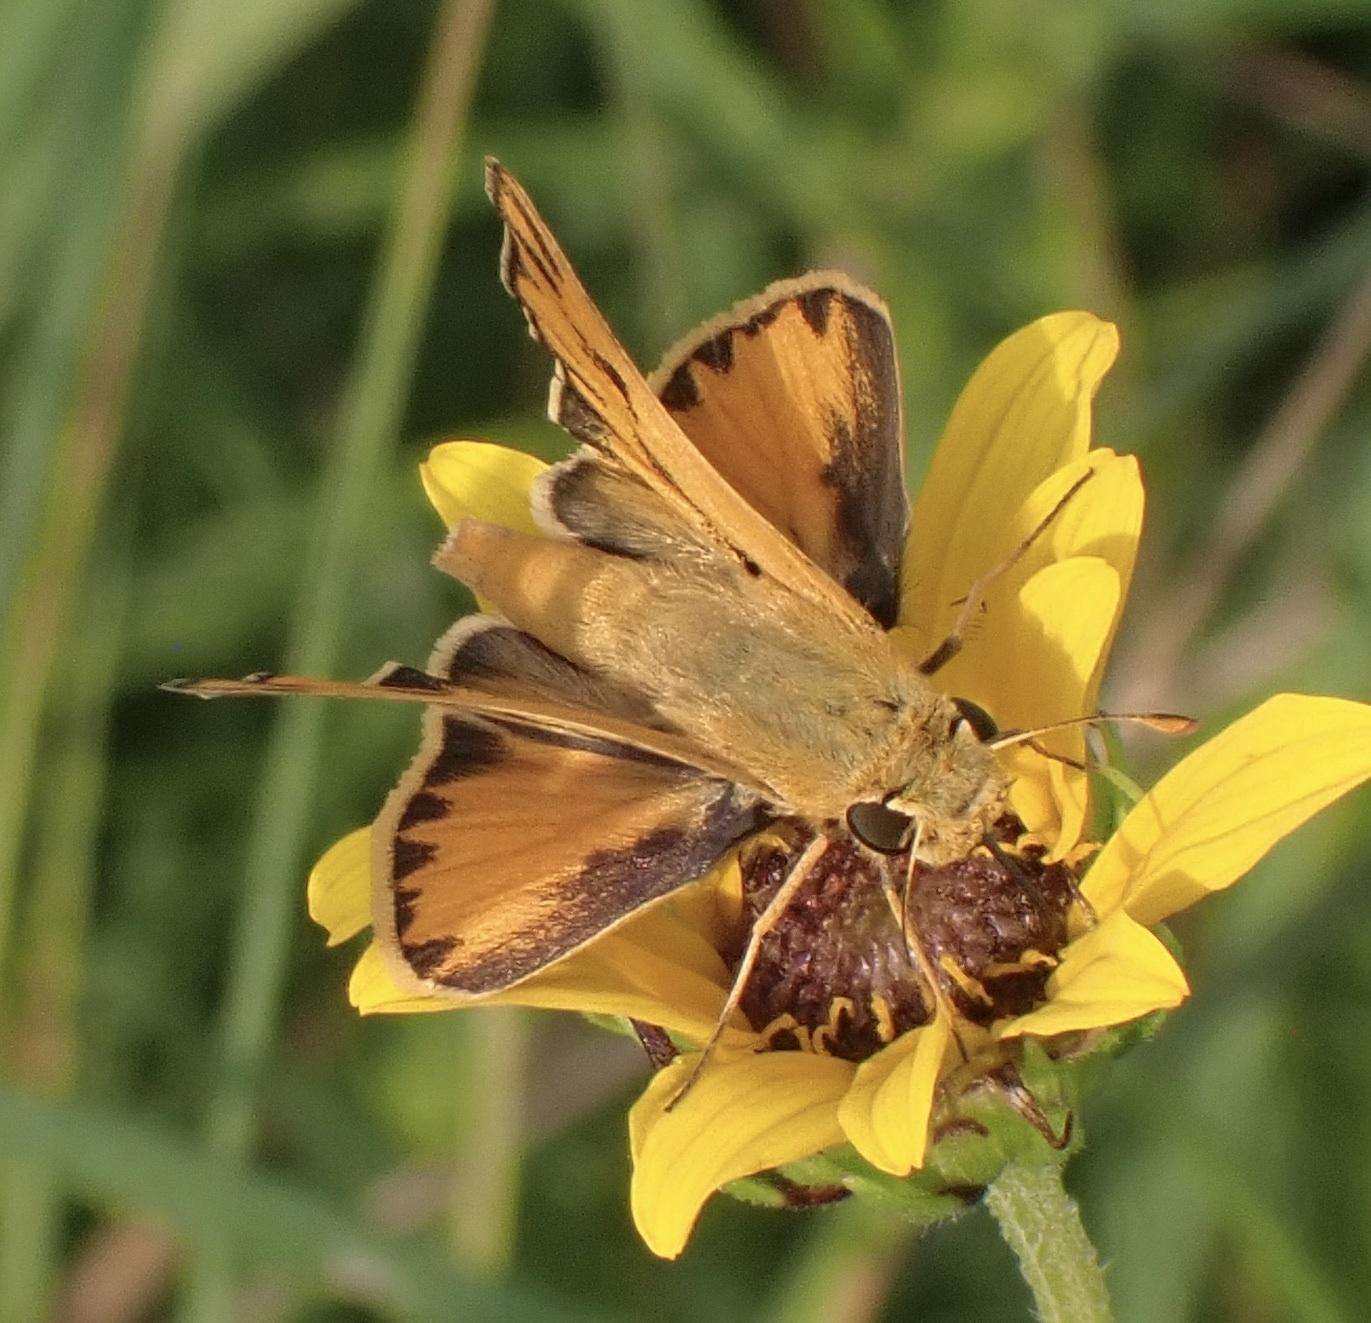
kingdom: Animalia
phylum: Arthropoda
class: Insecta
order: Lepidoptera
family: Hesperiidae
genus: Hylephila
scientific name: Hylephila phyleus
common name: Fiery skipper
